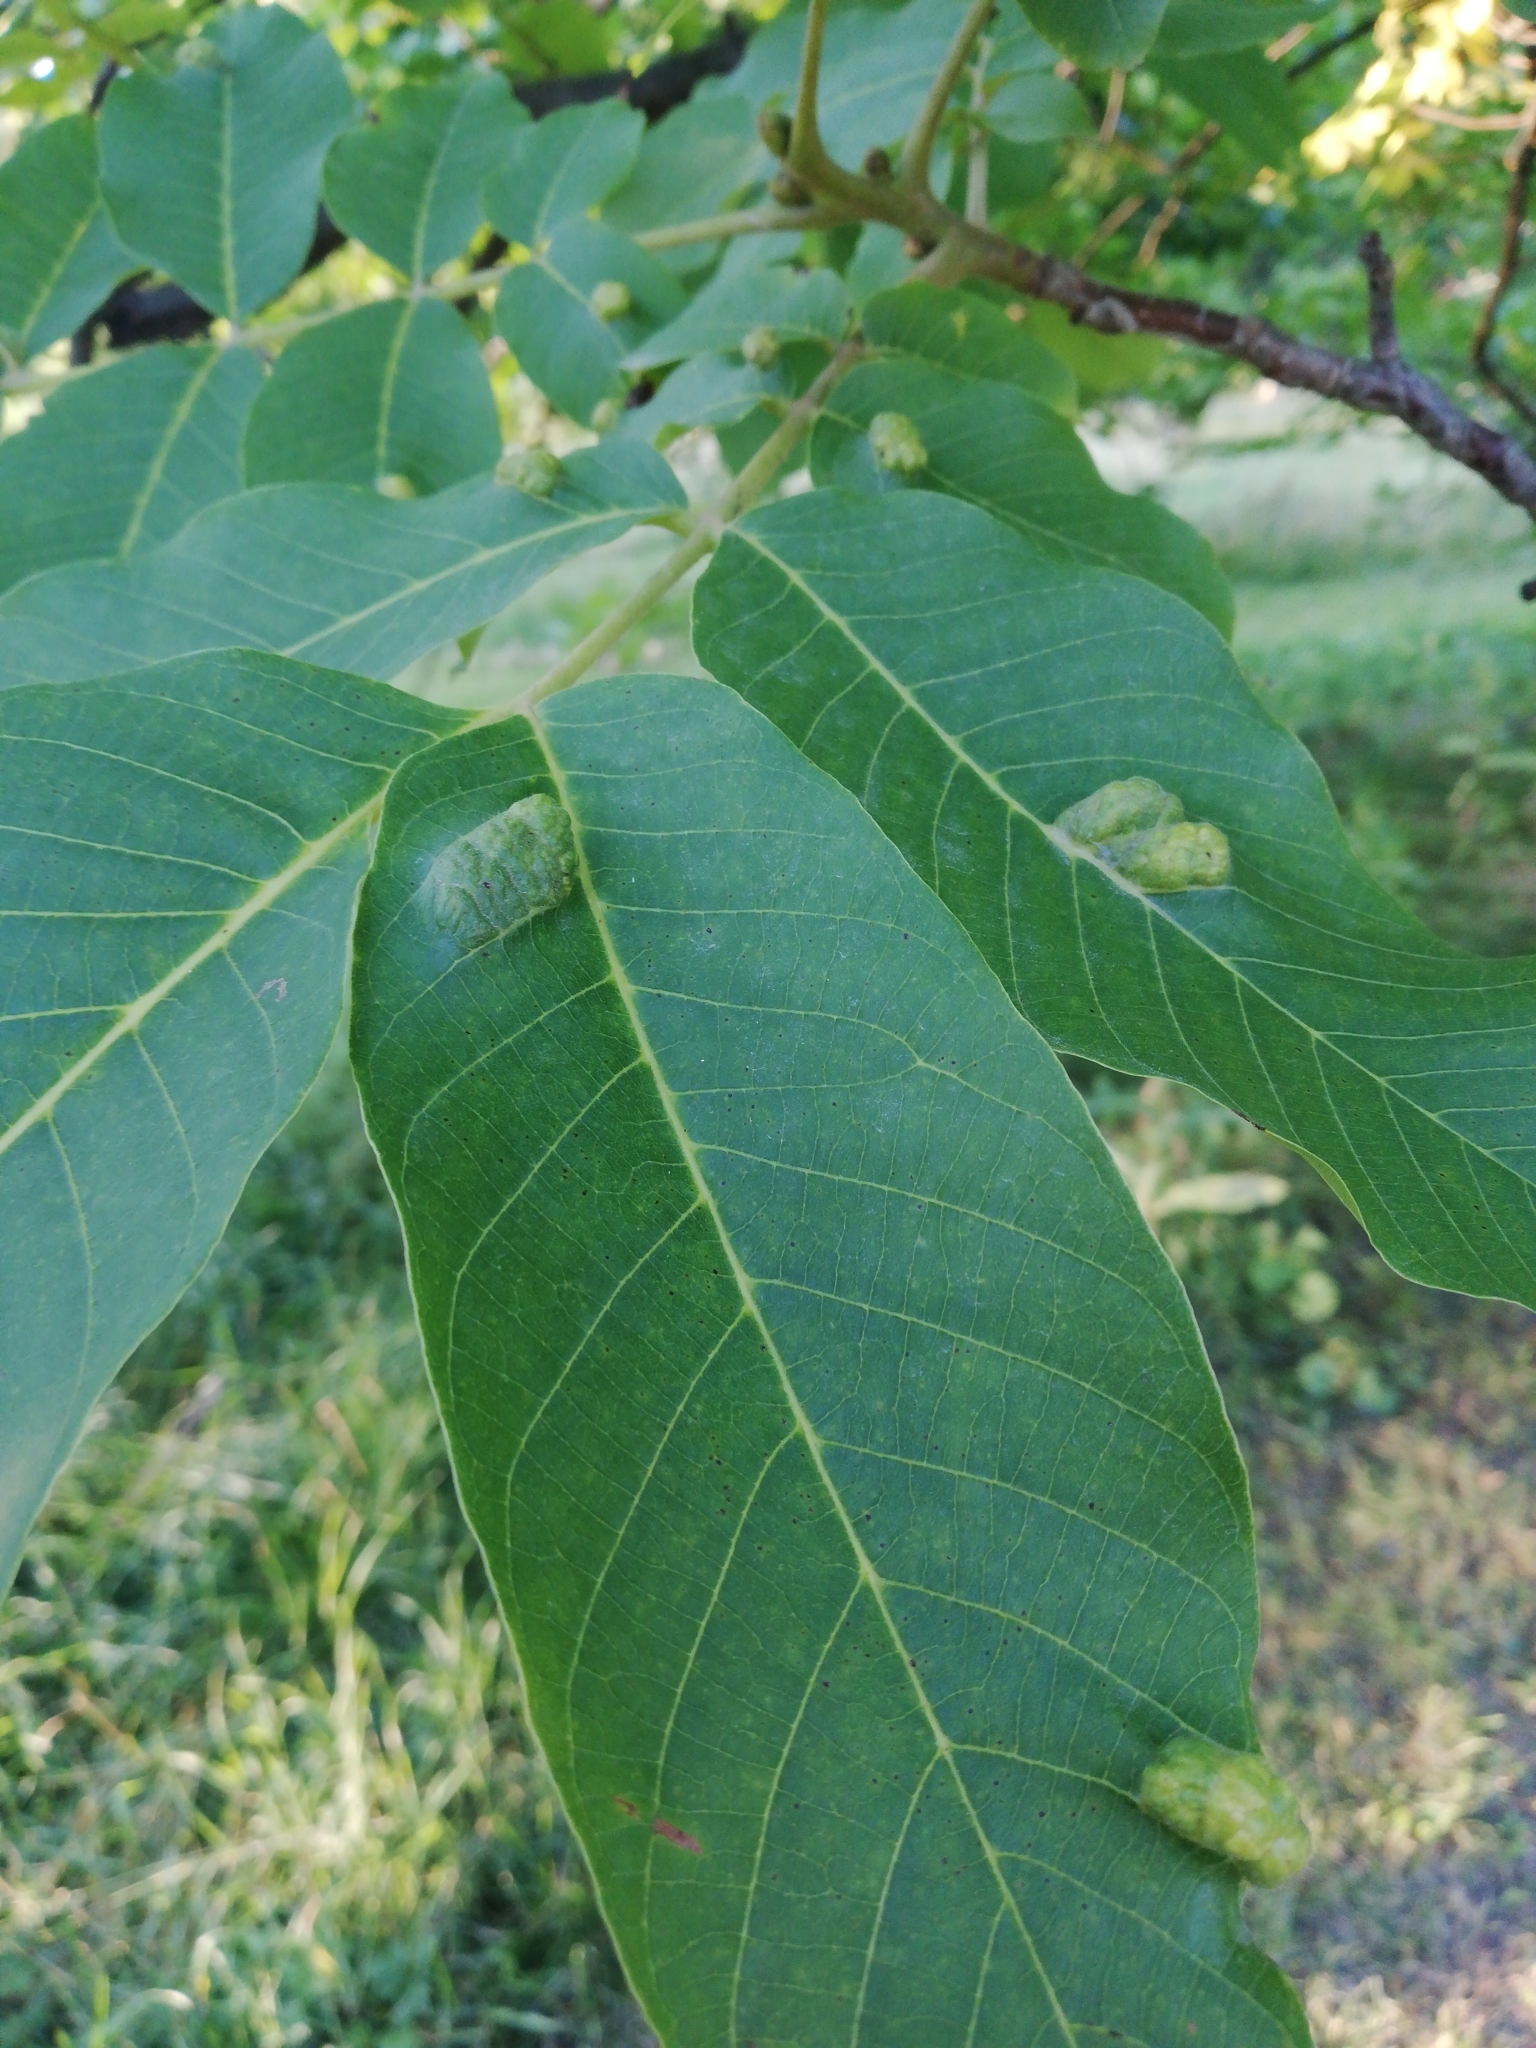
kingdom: Animalia
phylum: Arthropoda
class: Arachnida
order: Trombidiformes
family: Eriophyidae
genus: Aceria
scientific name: Aceria erinea
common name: Persian walnut erineum mite
